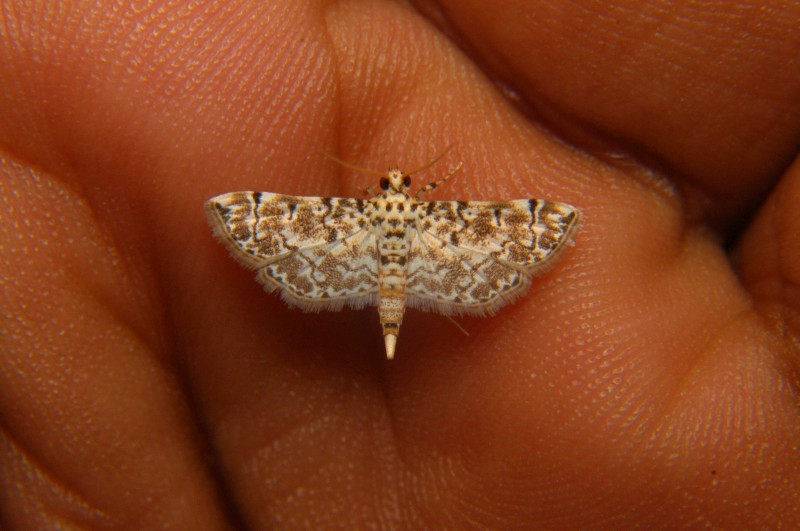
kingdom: Animalia
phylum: Arthropoda
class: Insecta
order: Lepidoptera
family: Crambidae
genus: Metoeca
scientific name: Metoeca foedalis
